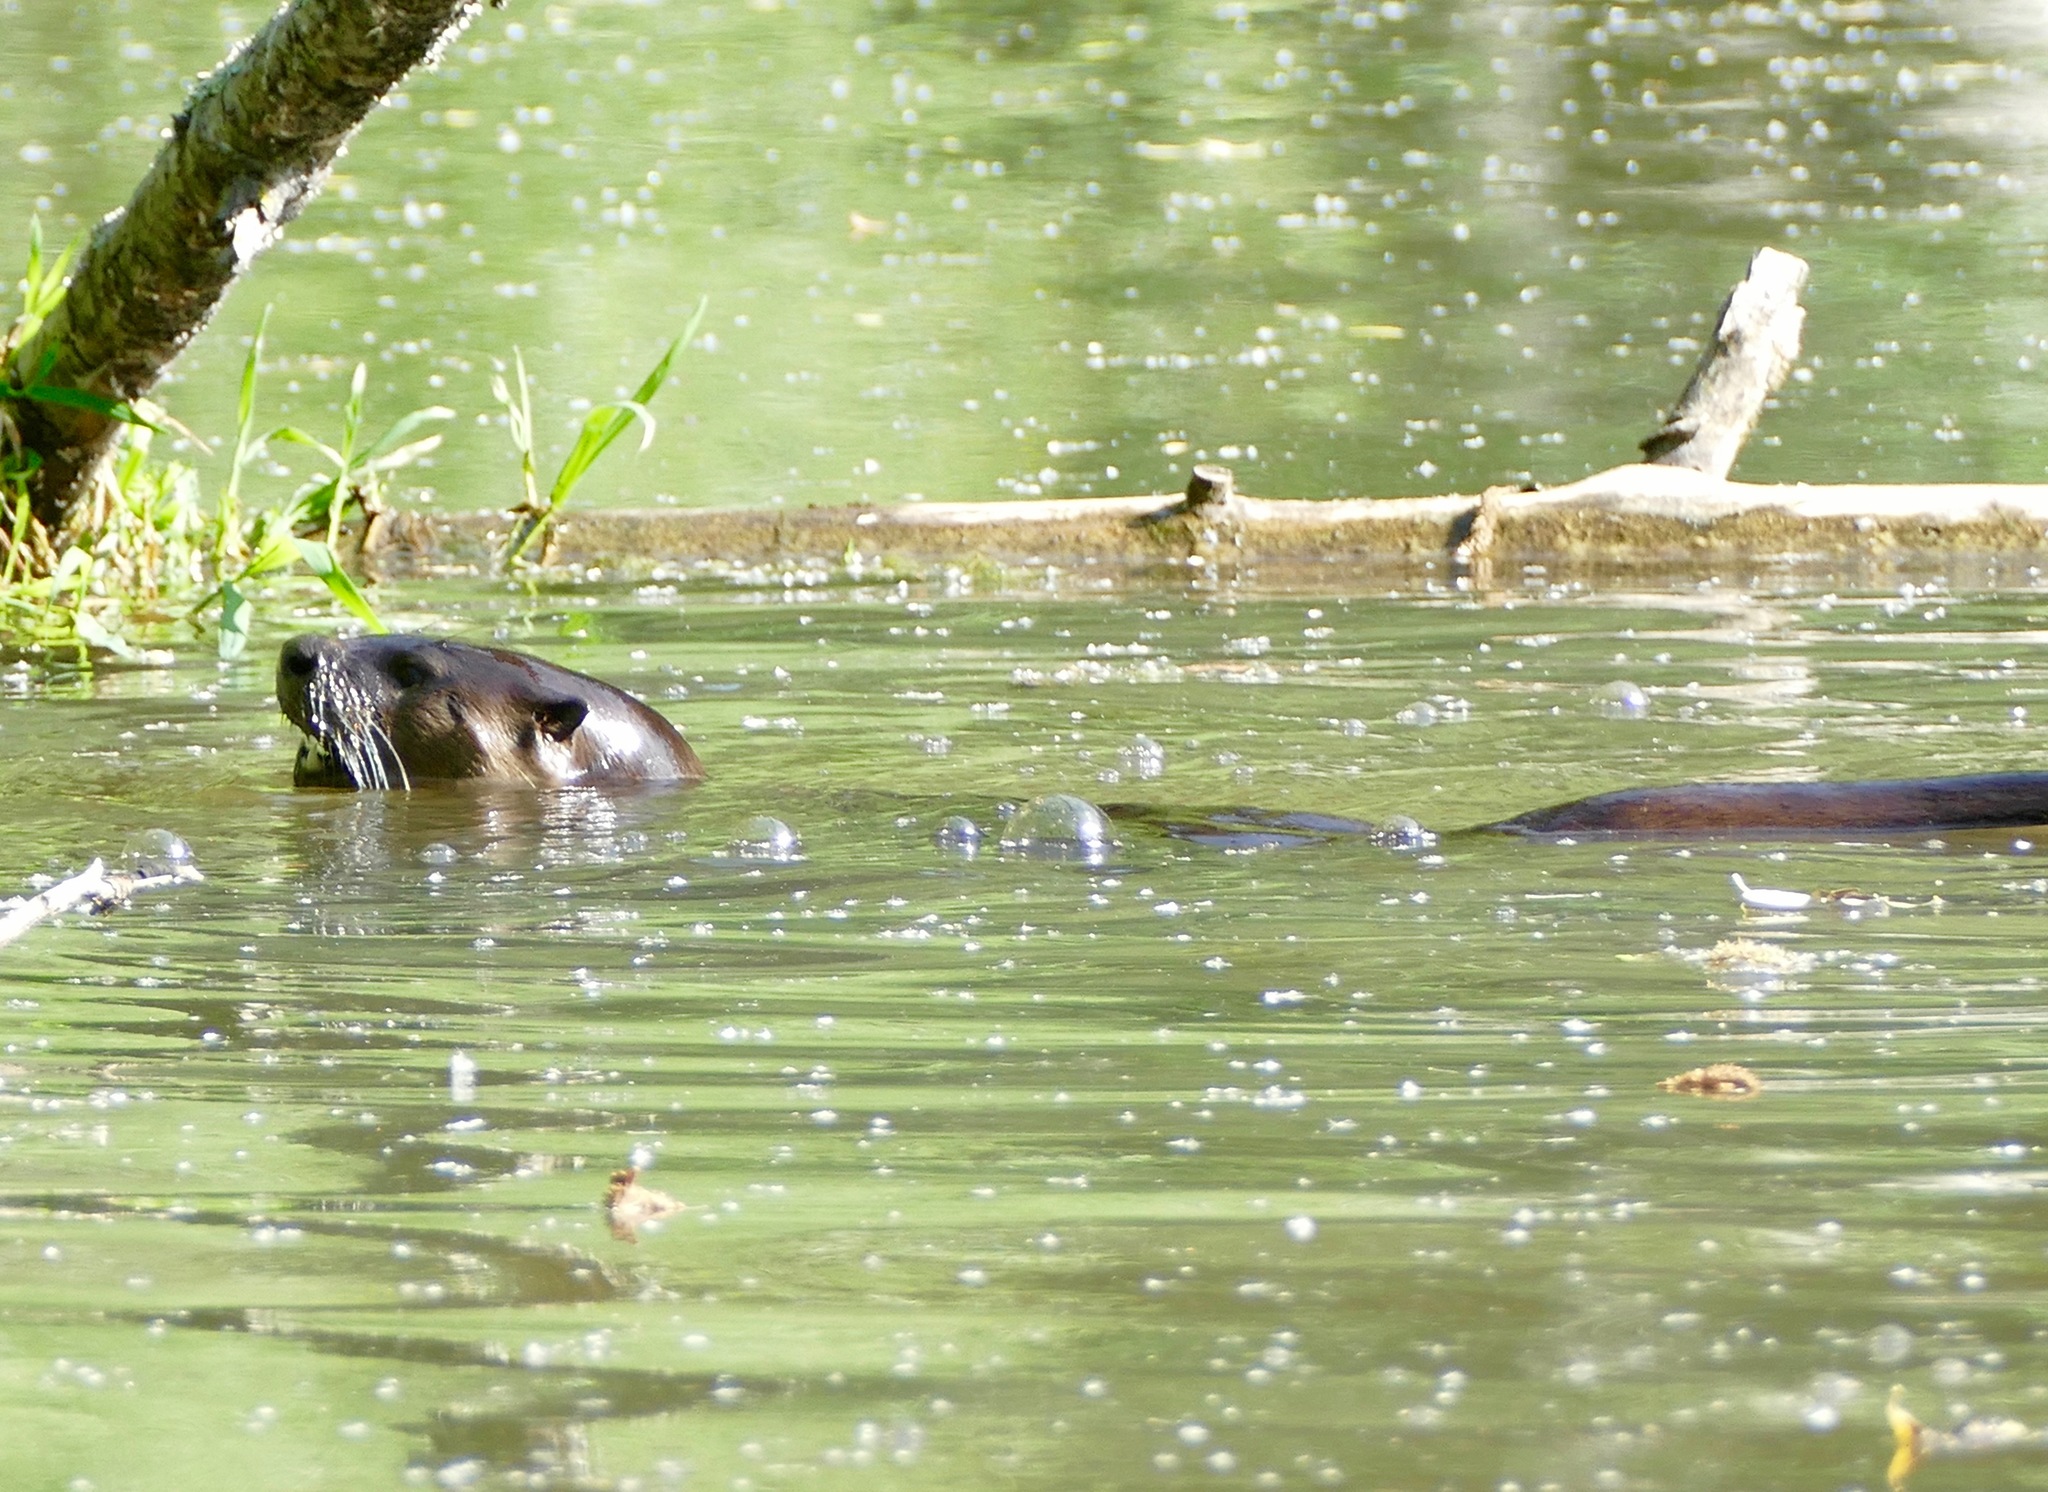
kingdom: Animalia
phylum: Chordata
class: Mammalia
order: Carnivora
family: Mustelidae
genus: Lontra
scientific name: Lontra canadensis
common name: North american river otter
